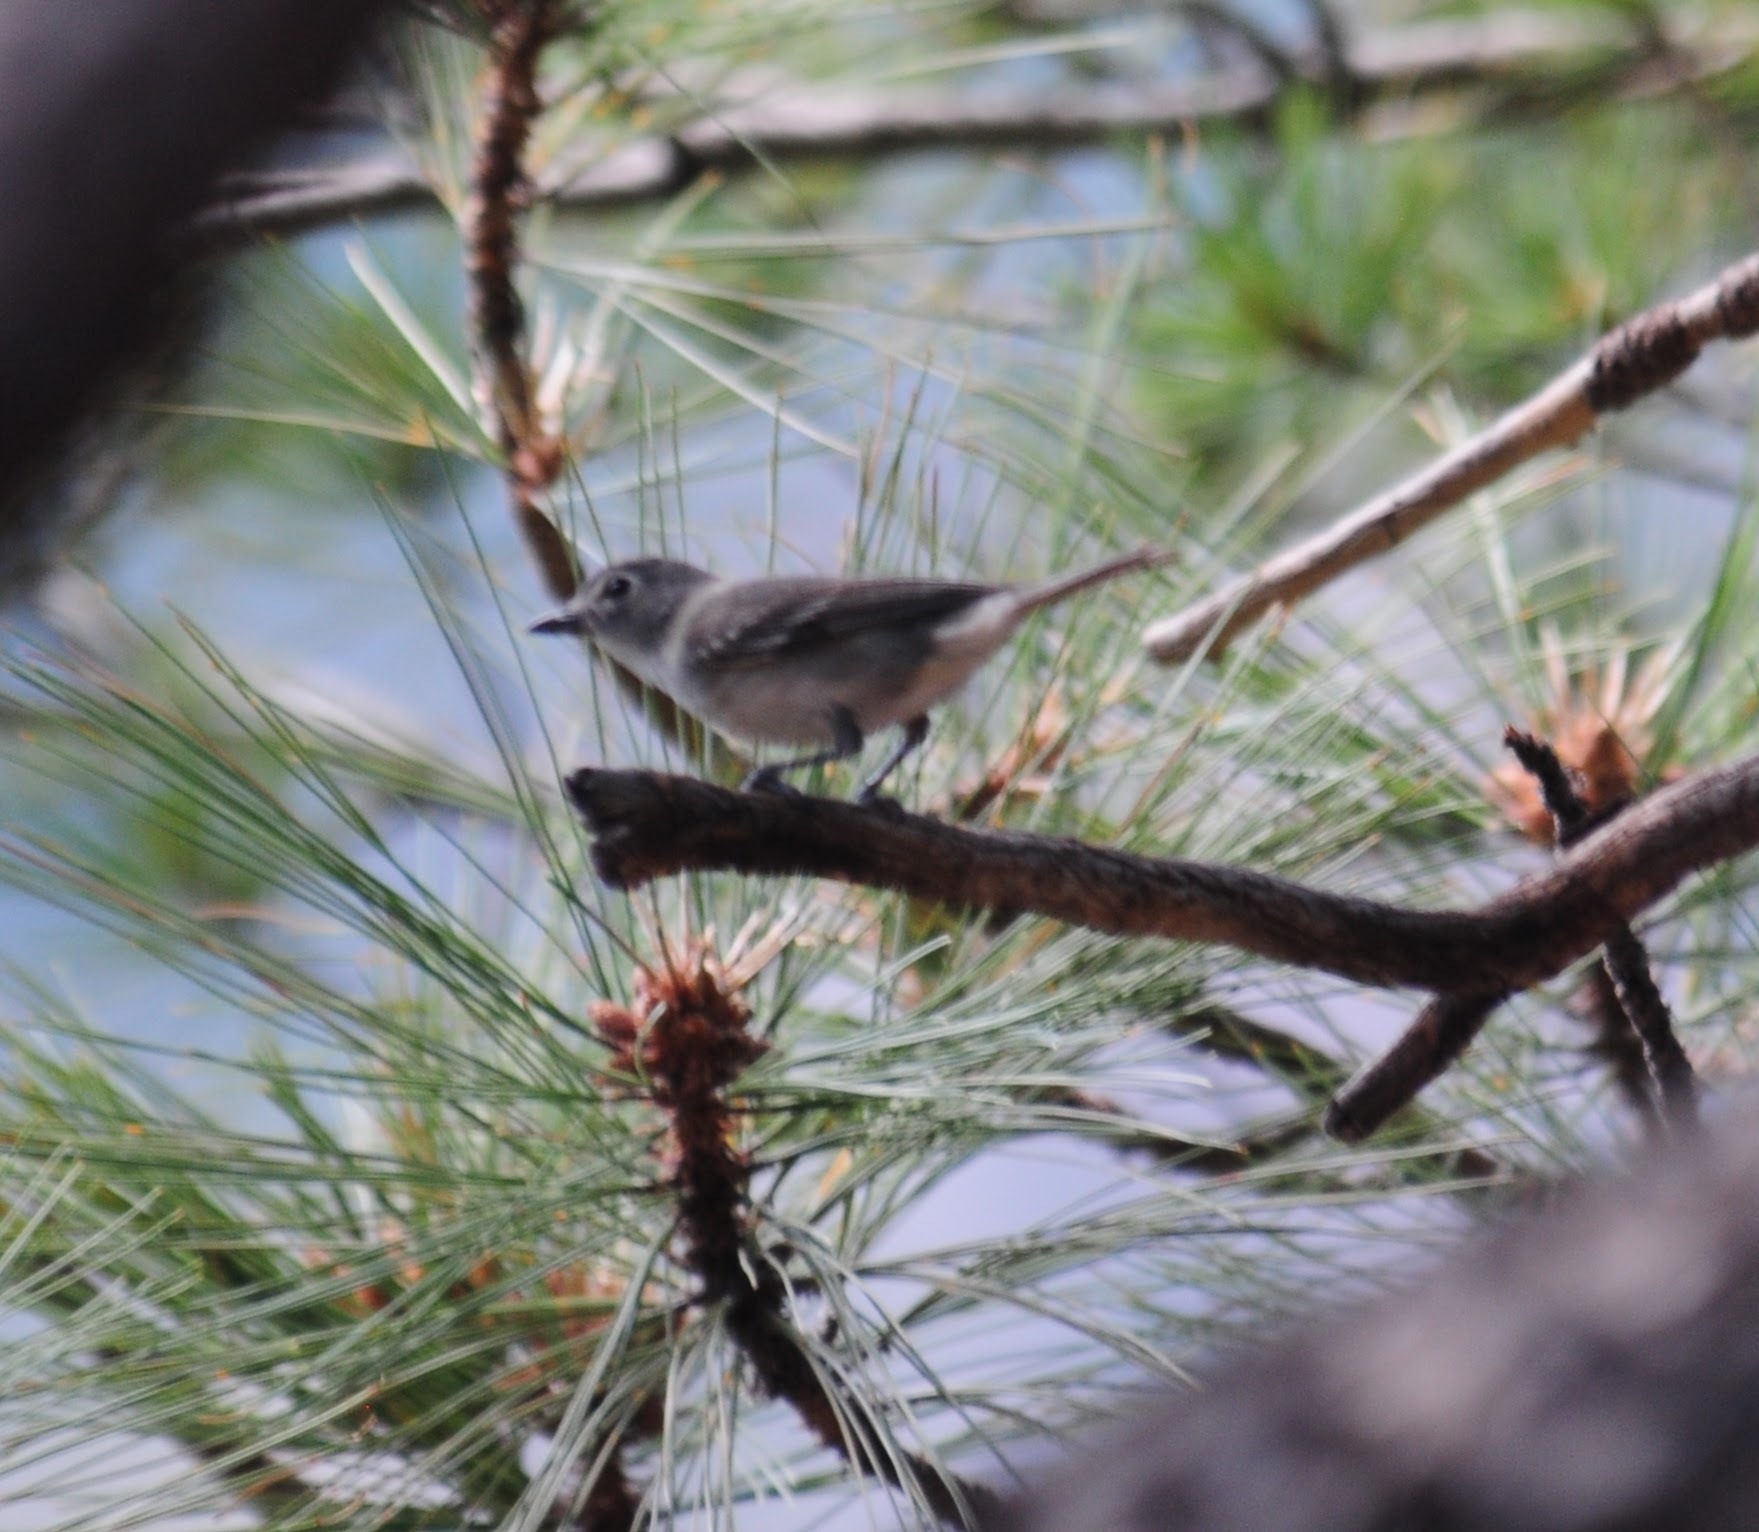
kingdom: Animalia
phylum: Chordata
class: Aves
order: Passeriformes
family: Vireonidae
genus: Vireo
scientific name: Vireo plumbeus
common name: Plumbeous vireo
